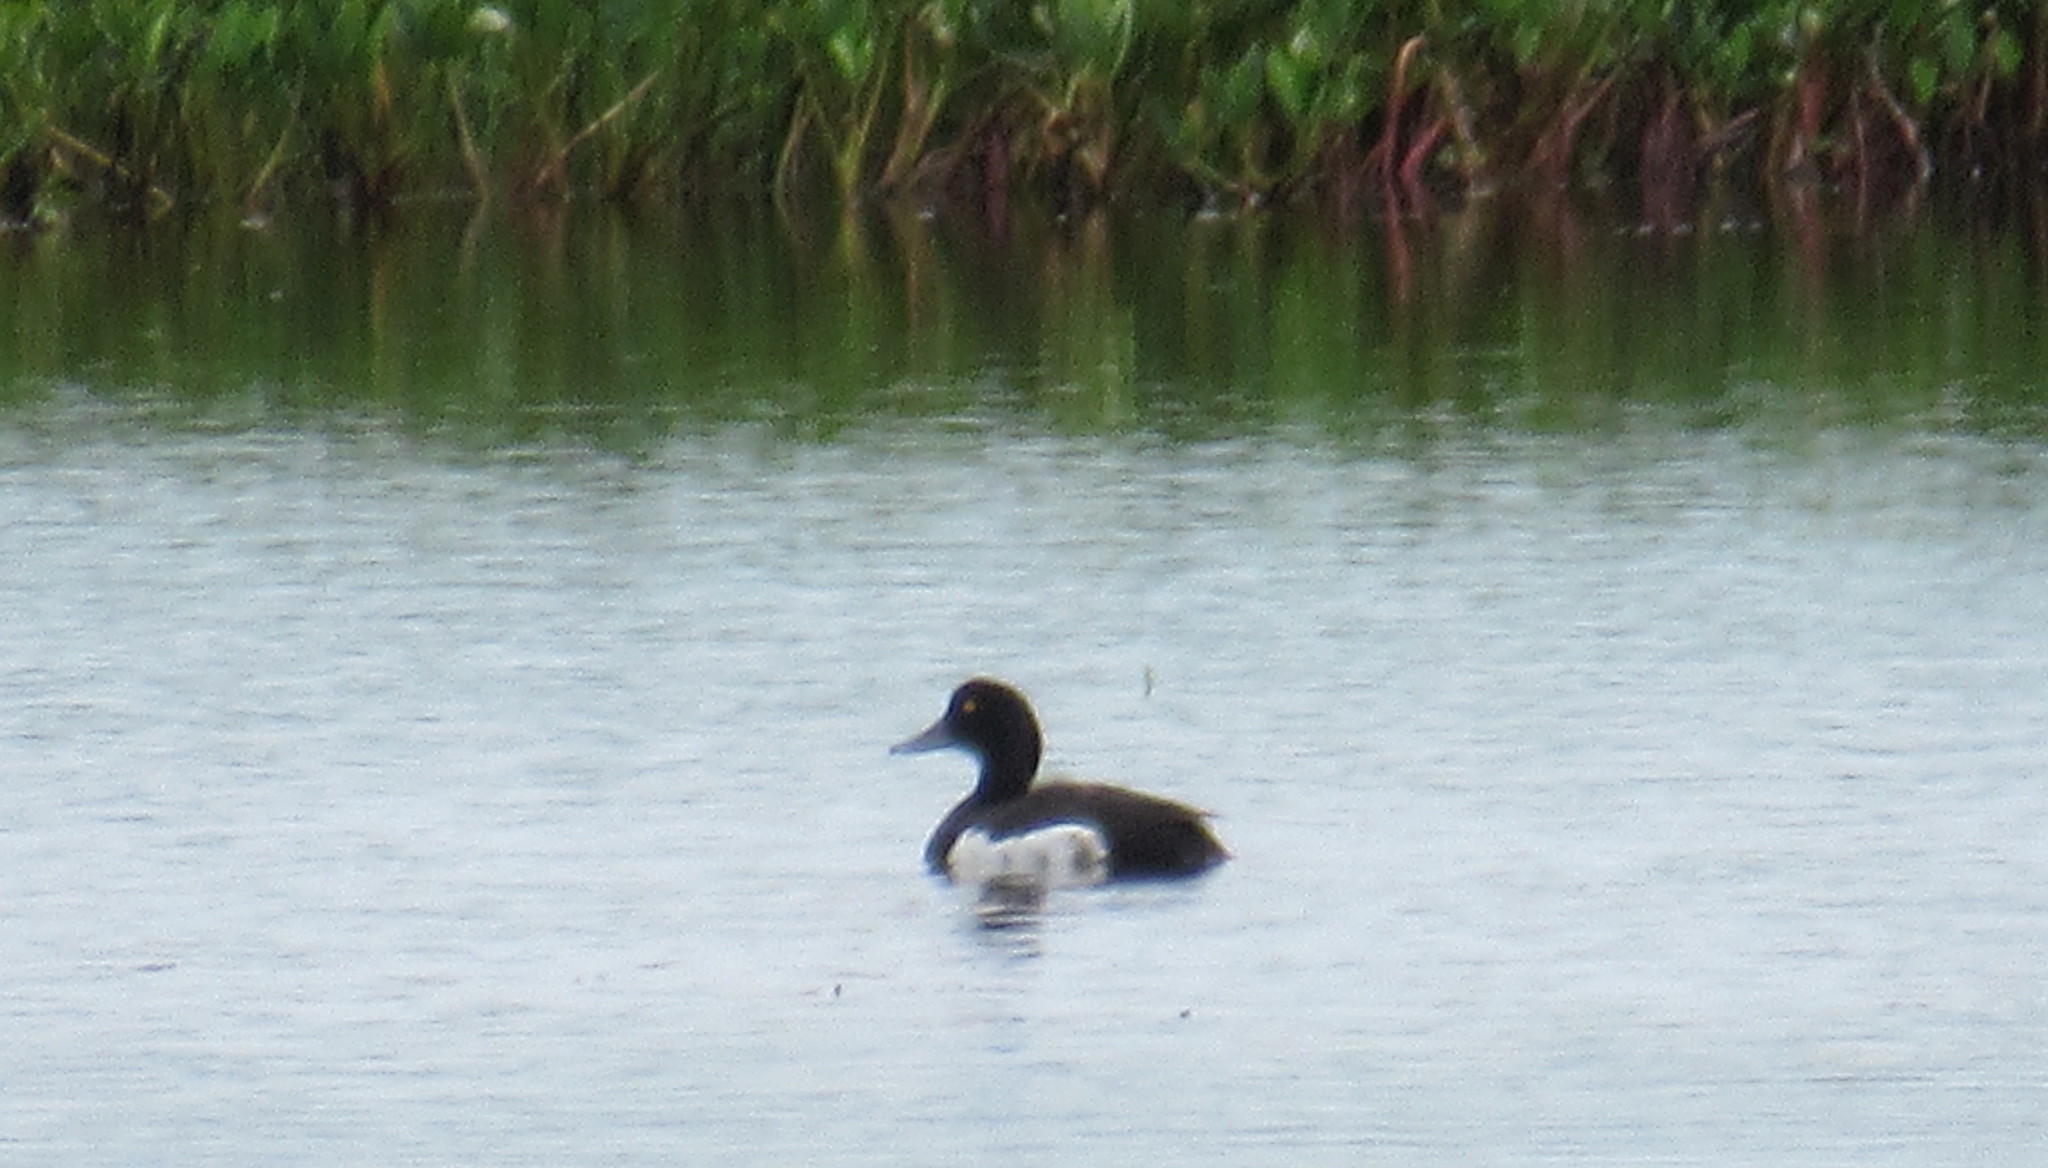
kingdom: Animalia
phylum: Chordata
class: Aves
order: Anseriformes
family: Anatidae
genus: Aythya
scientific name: Aythya fuligula
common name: Tufted duck
